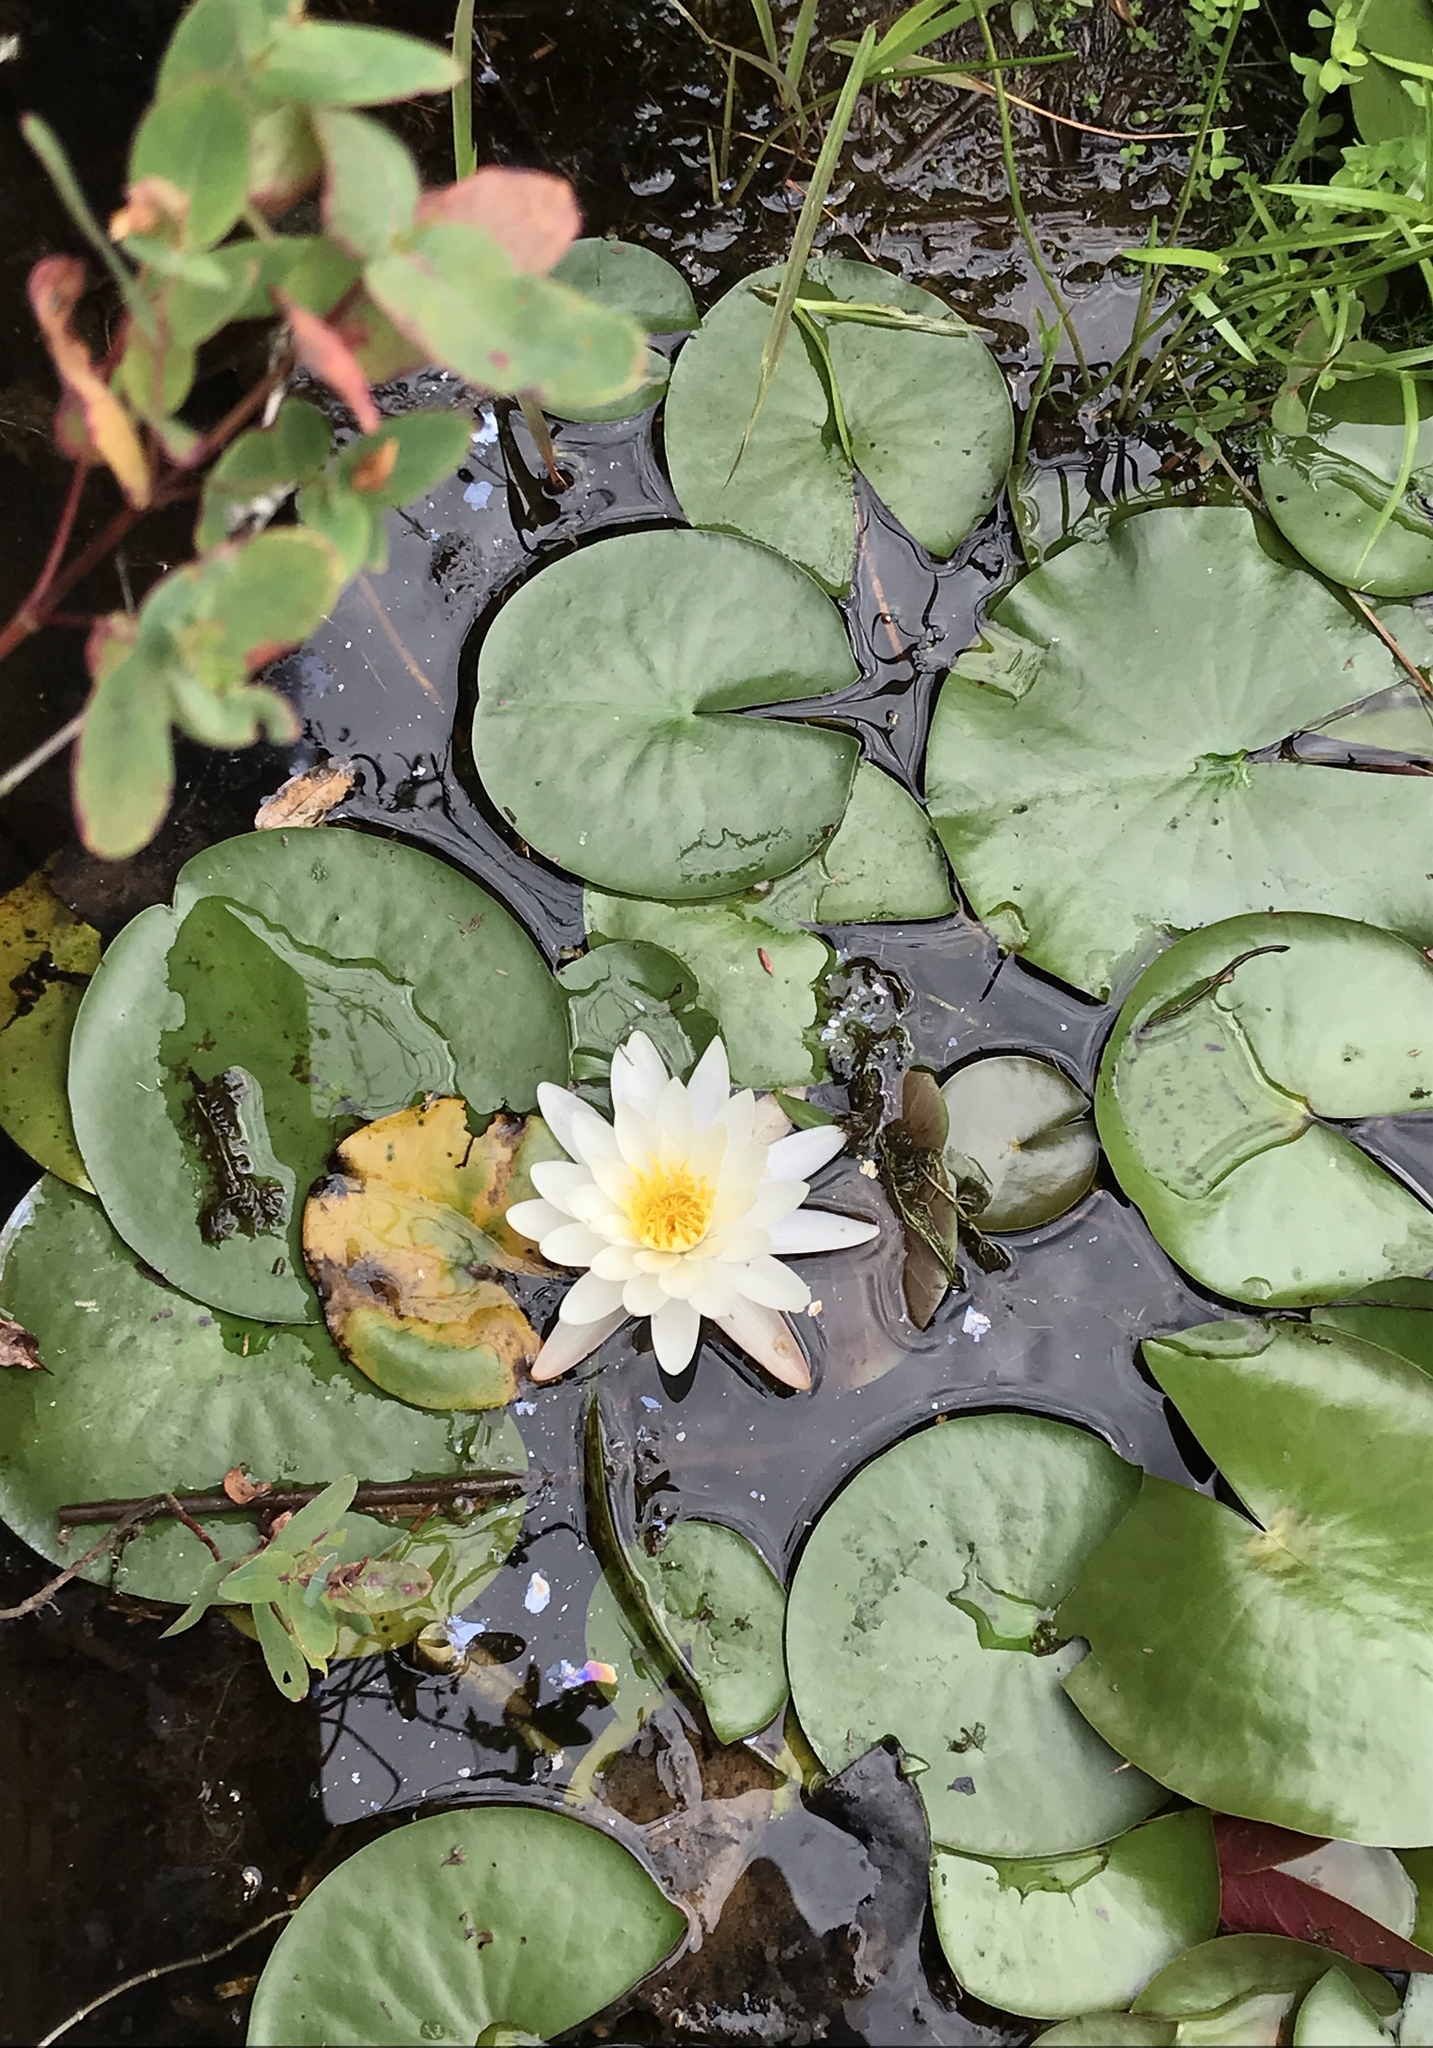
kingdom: Plantae
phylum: Tracheophyta
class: Magnoliopsida
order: Nymphaeales
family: Nymphaeaceae
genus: Nymphaea
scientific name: Nymphaea odorata
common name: Fragrant water-lily
